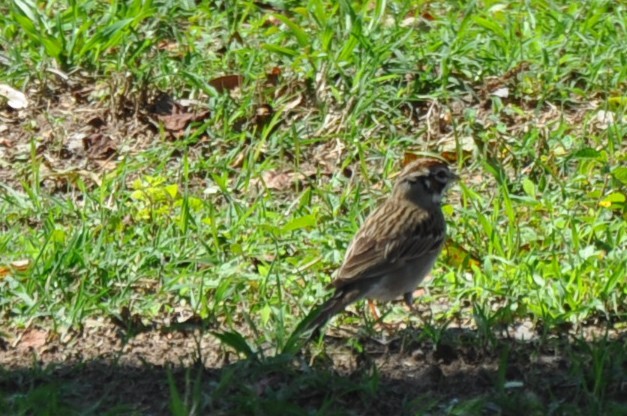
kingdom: Animalia
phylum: Chordata
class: Aves
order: Passeriformes
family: Passerellidae
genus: Chondestes
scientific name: Chondestes grammacus
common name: Lark sparrow
